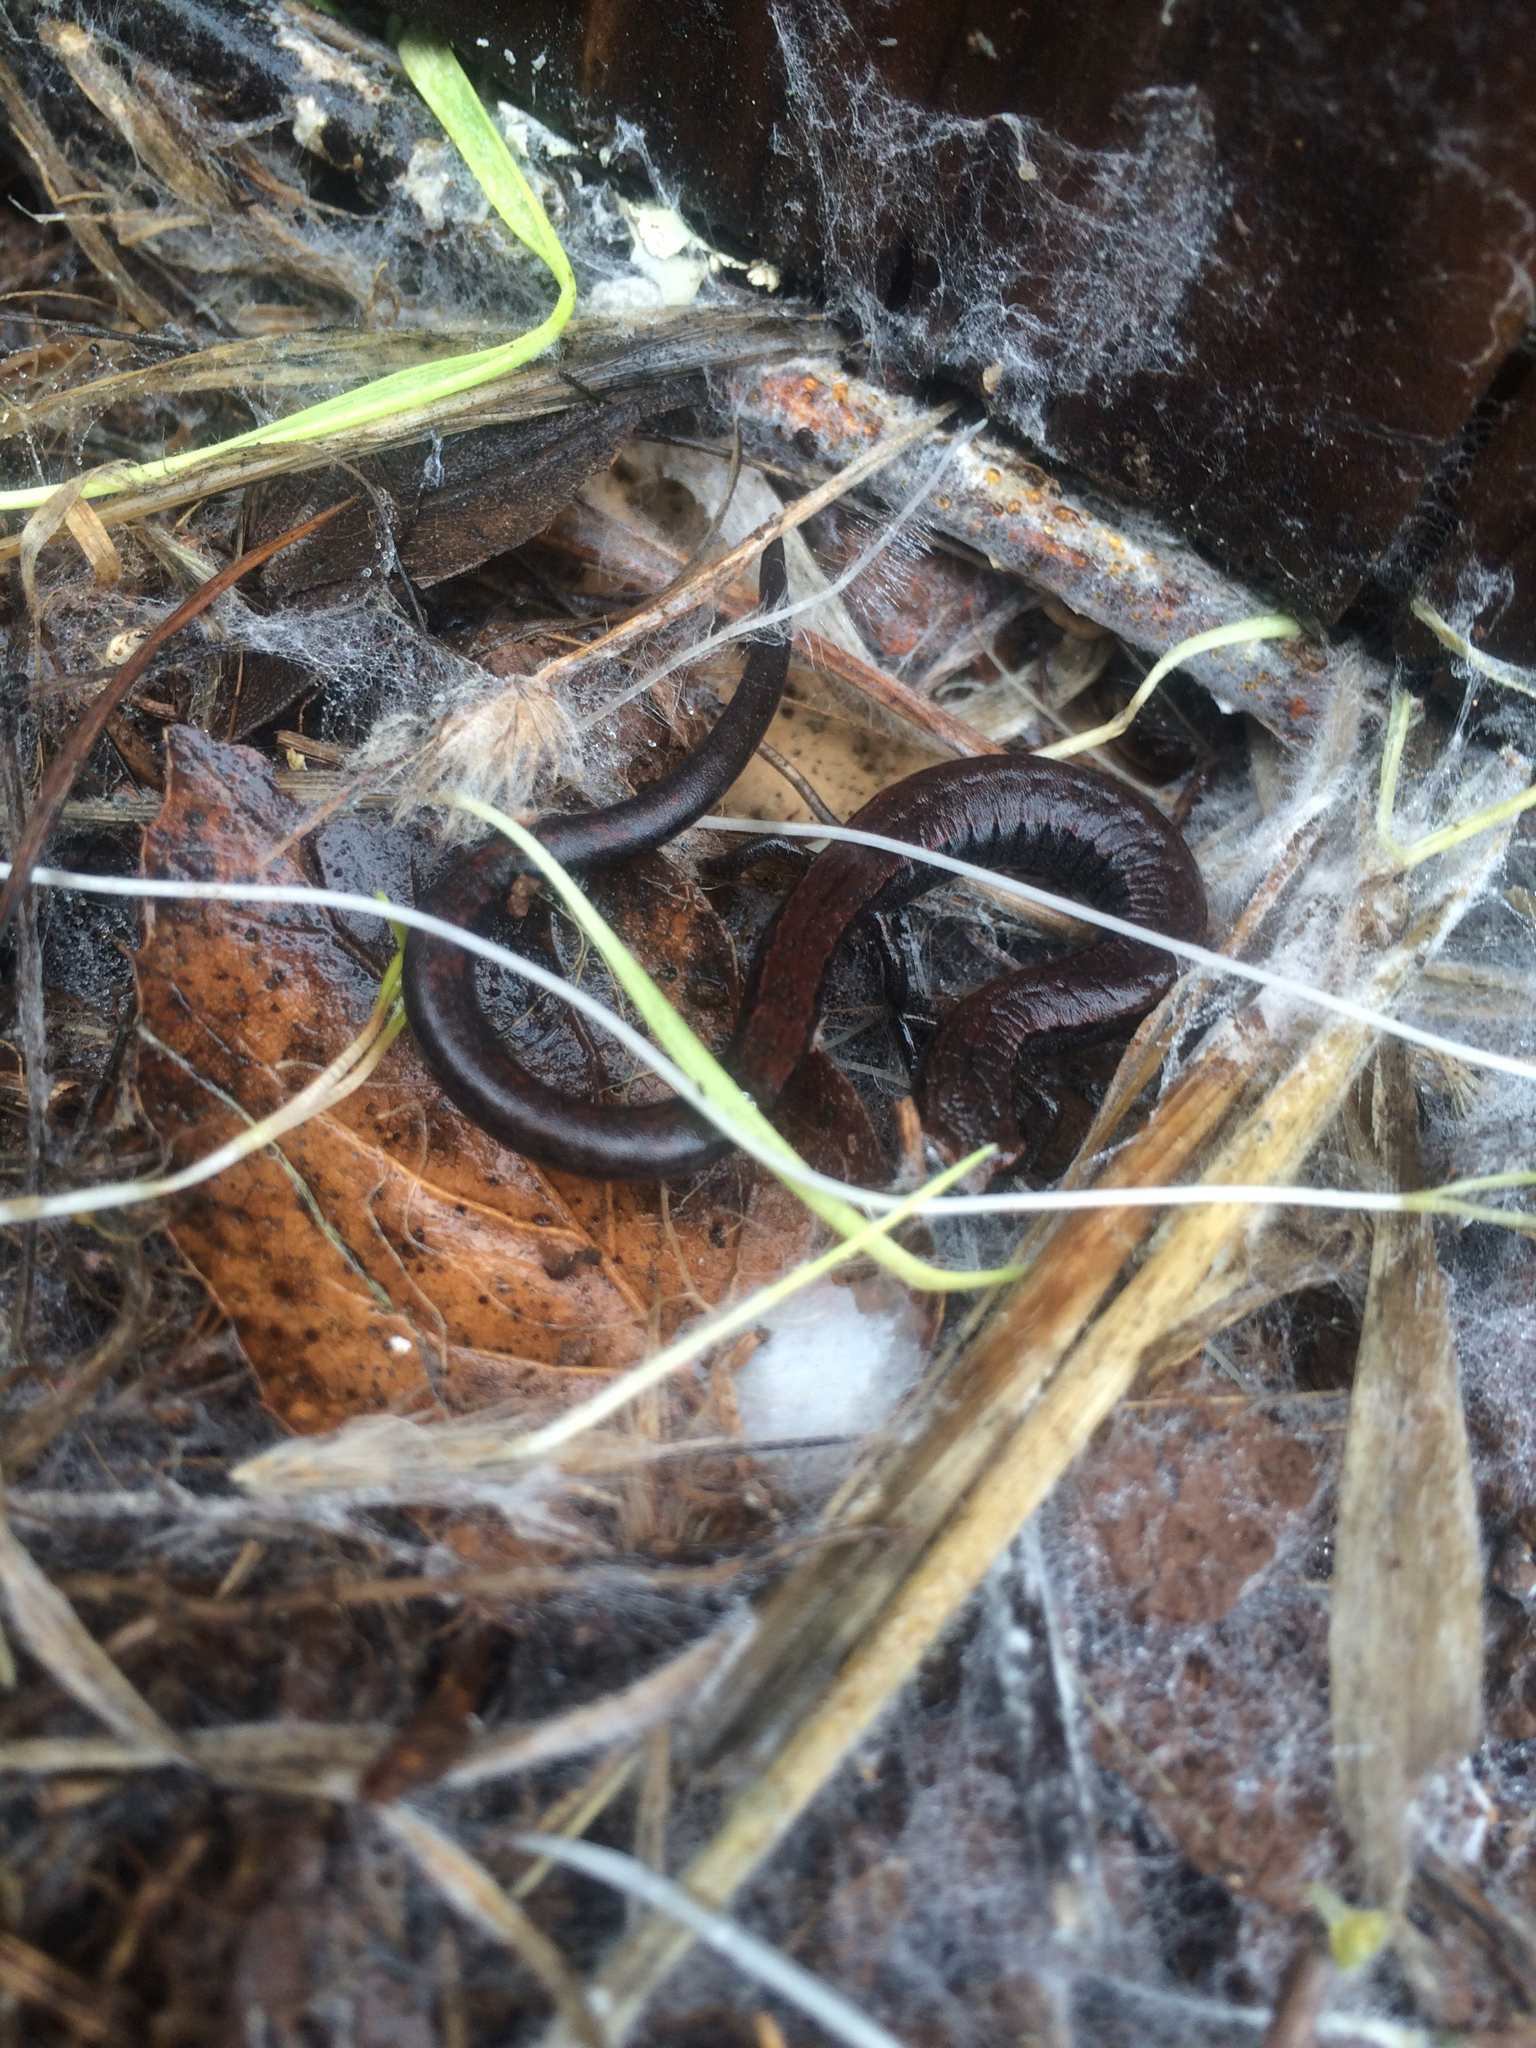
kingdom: Animalia
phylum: Chordata
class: Amphibia
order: Caudata
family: Plethodontidae
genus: Batrachoseps
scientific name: Batrachoseps attenuatus
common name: California slender salamander
